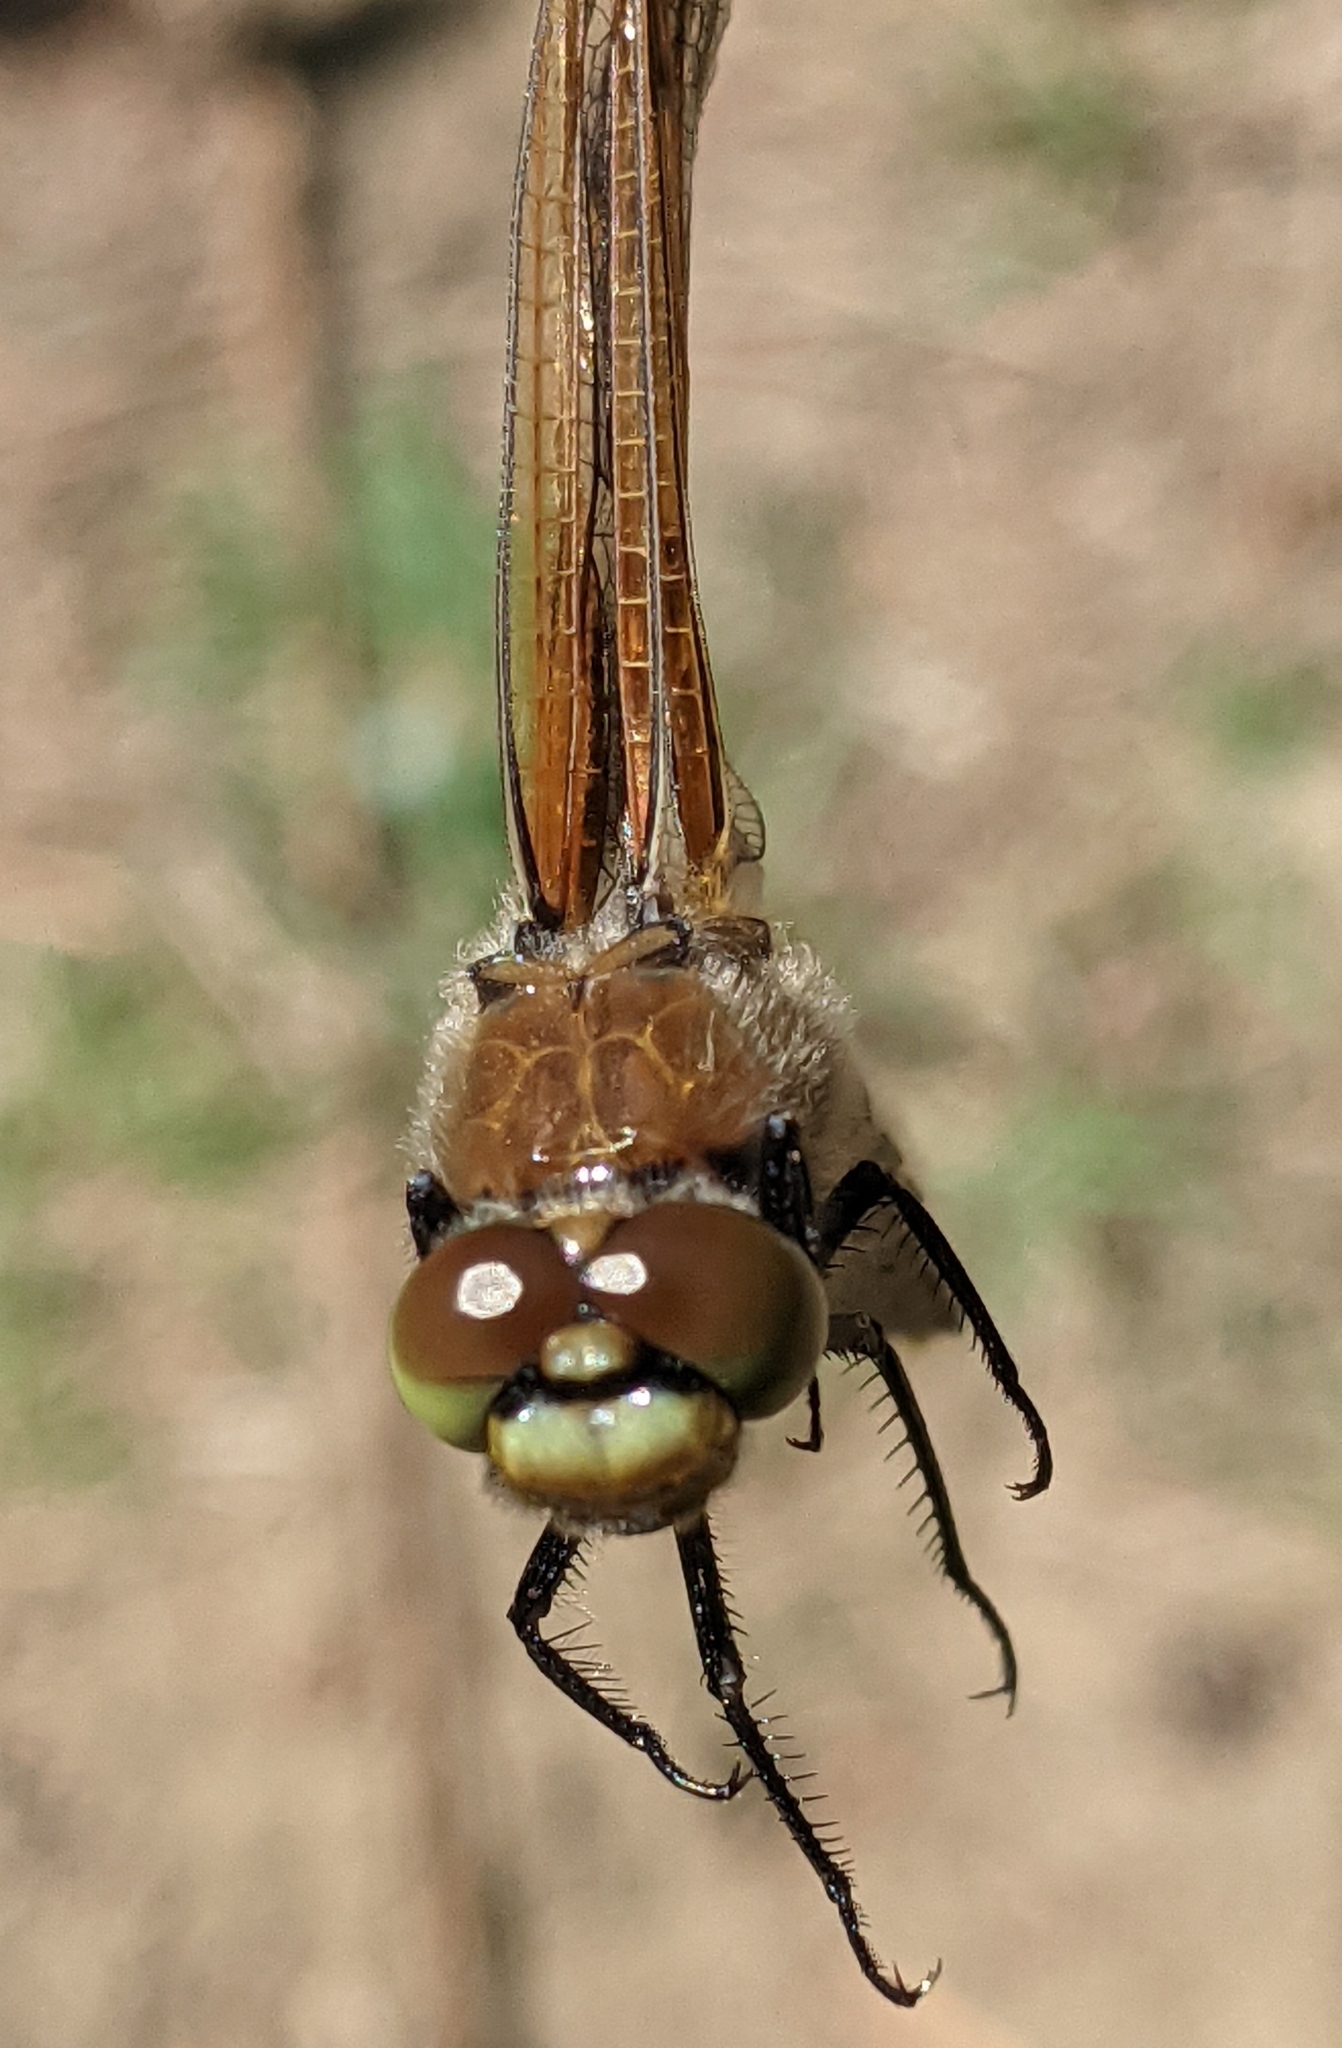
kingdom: Animalia
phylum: Arthropoda
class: Insecta
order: Odonata
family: Libellulidae
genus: Libellula
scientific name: Libellula quadrimaculata
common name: Four-spotted chaser
